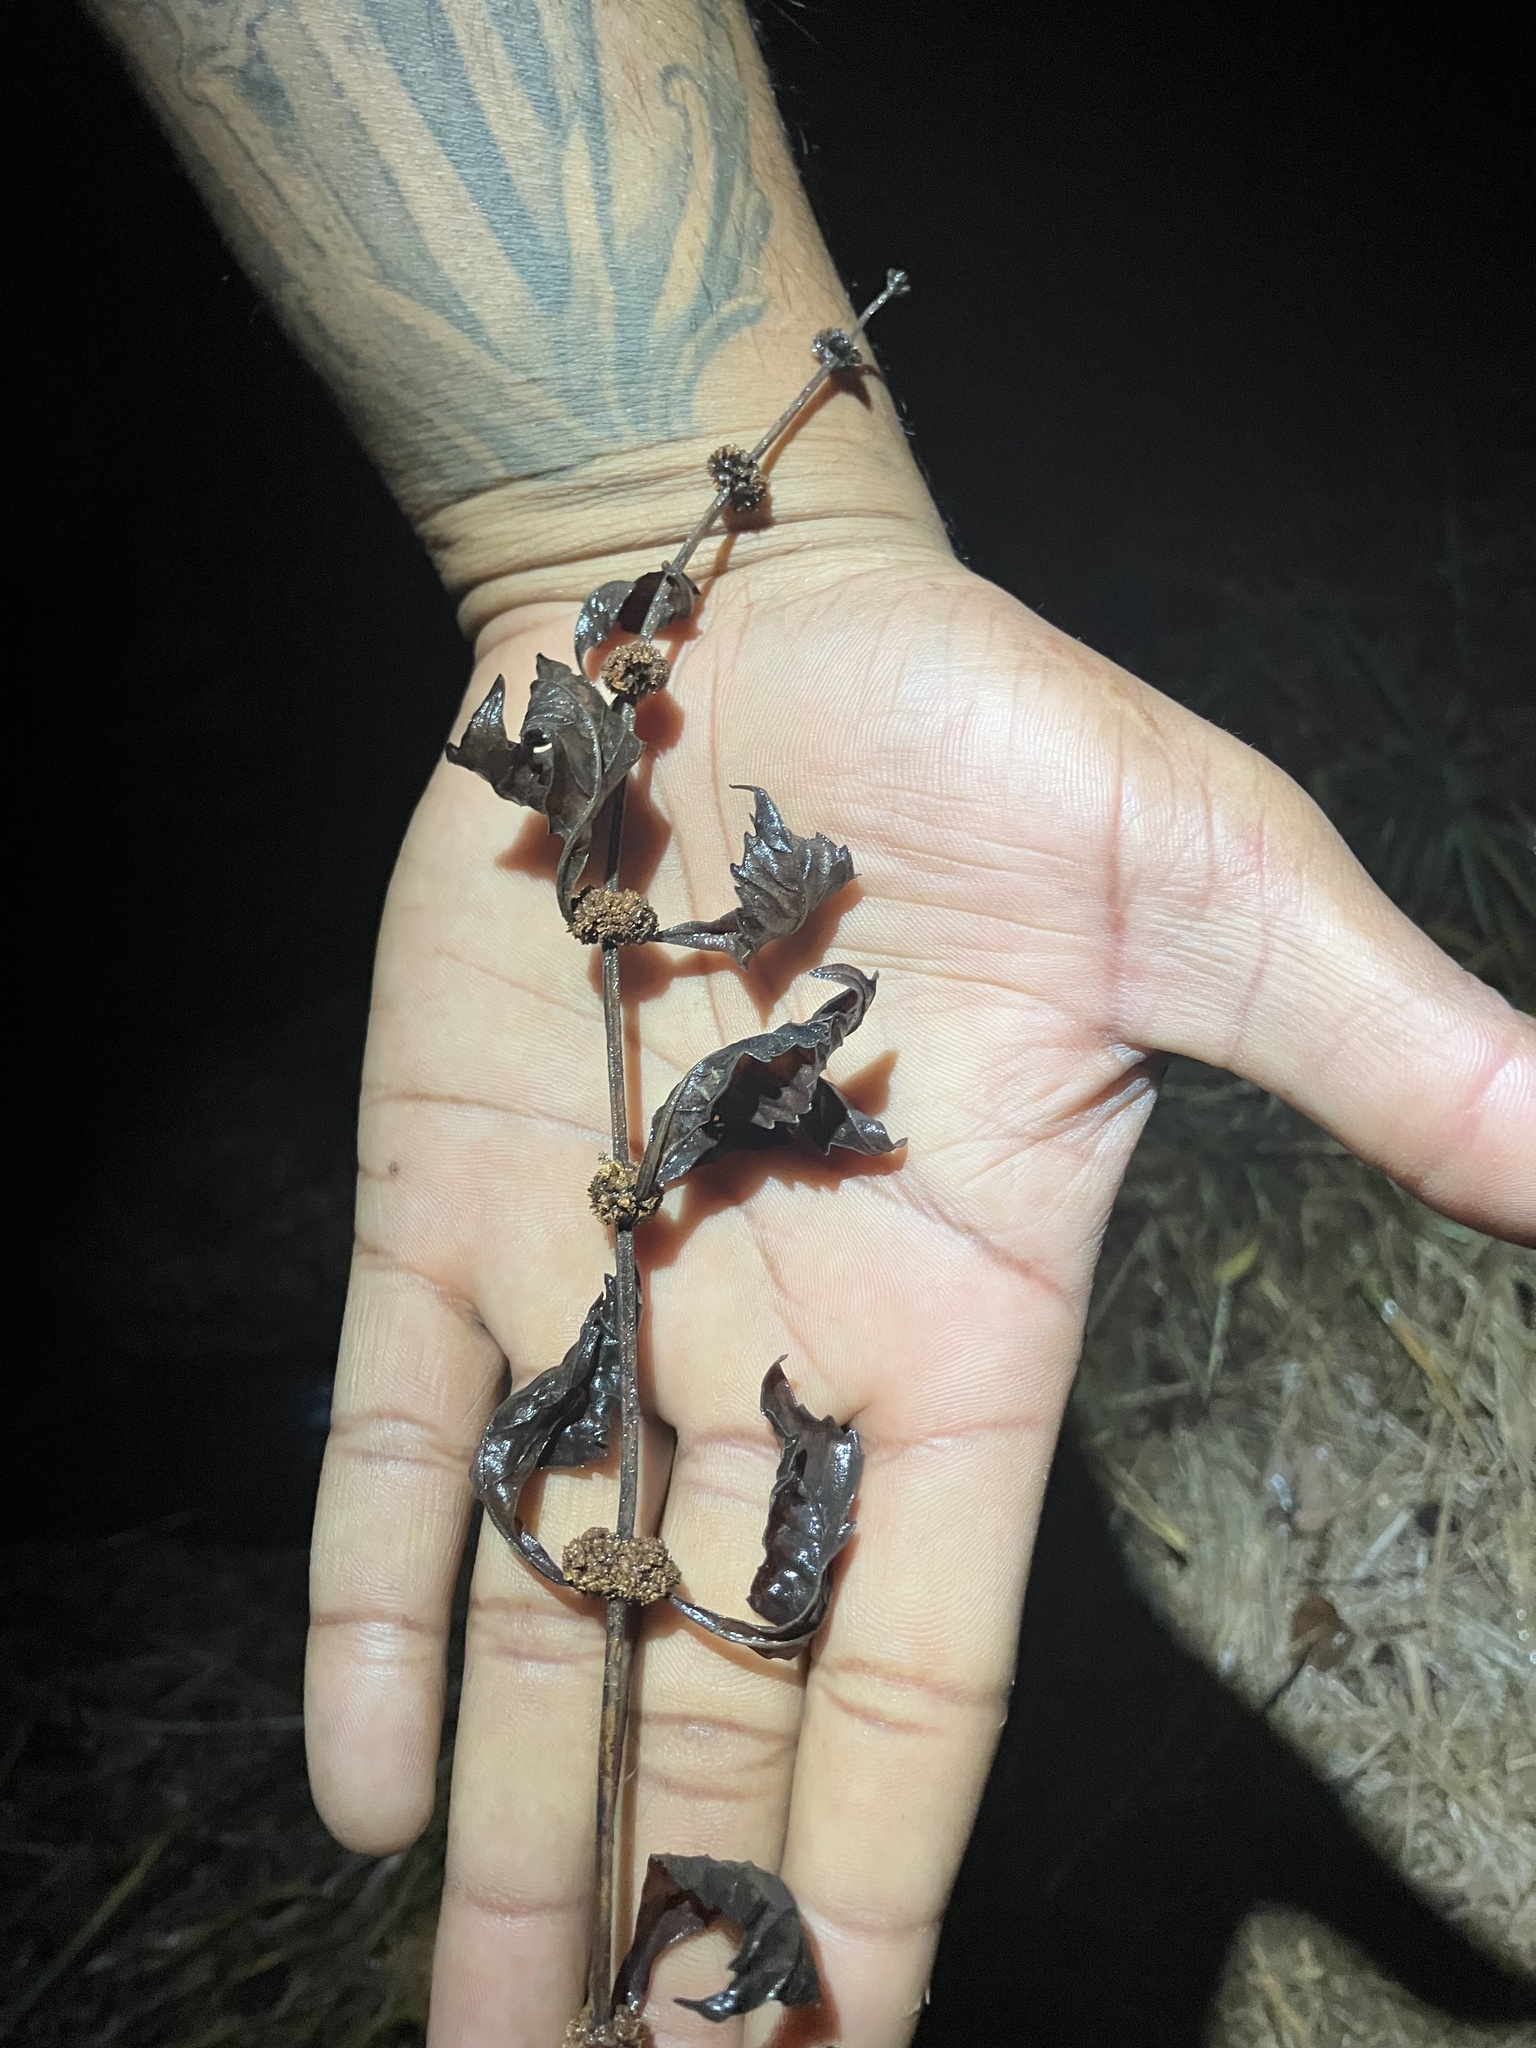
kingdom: Plantae
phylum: Tracheophyta
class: Magnoliopsida
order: Lamiales
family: Lamiaceae
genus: Lycopus
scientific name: Lycopus virginicus
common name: Bugleweed
